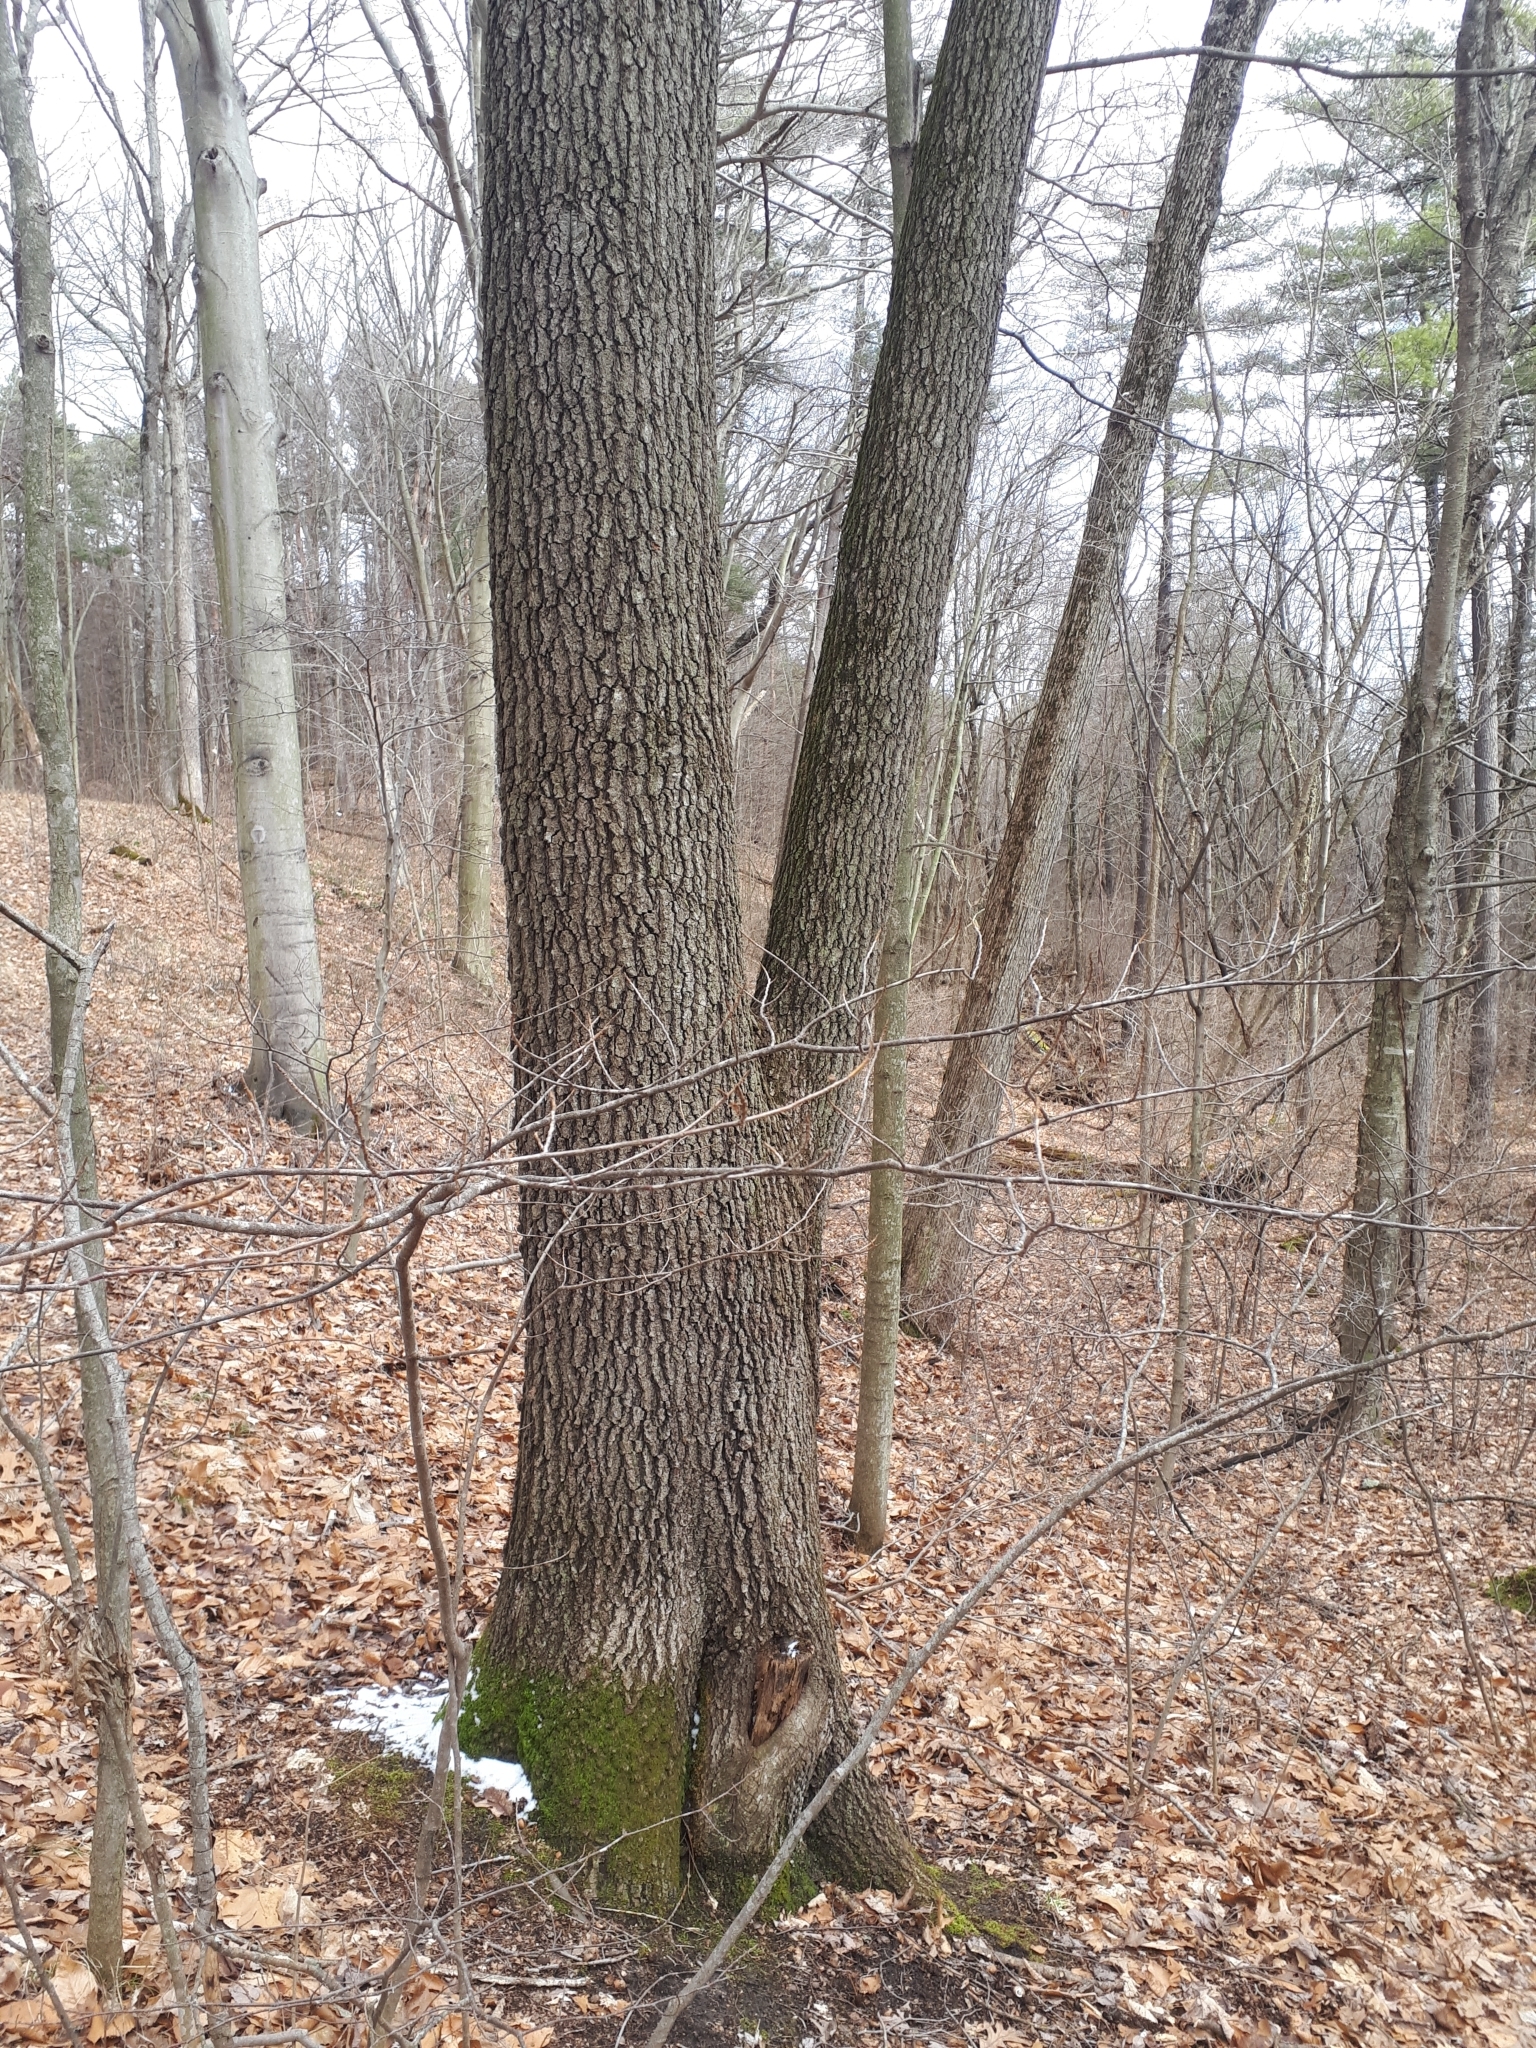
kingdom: Plantae
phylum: Tracheophyta
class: Magnoliopsida
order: Fagales
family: Fagaceae
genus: Quercus
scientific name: Quercus velutina
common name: Black oak
